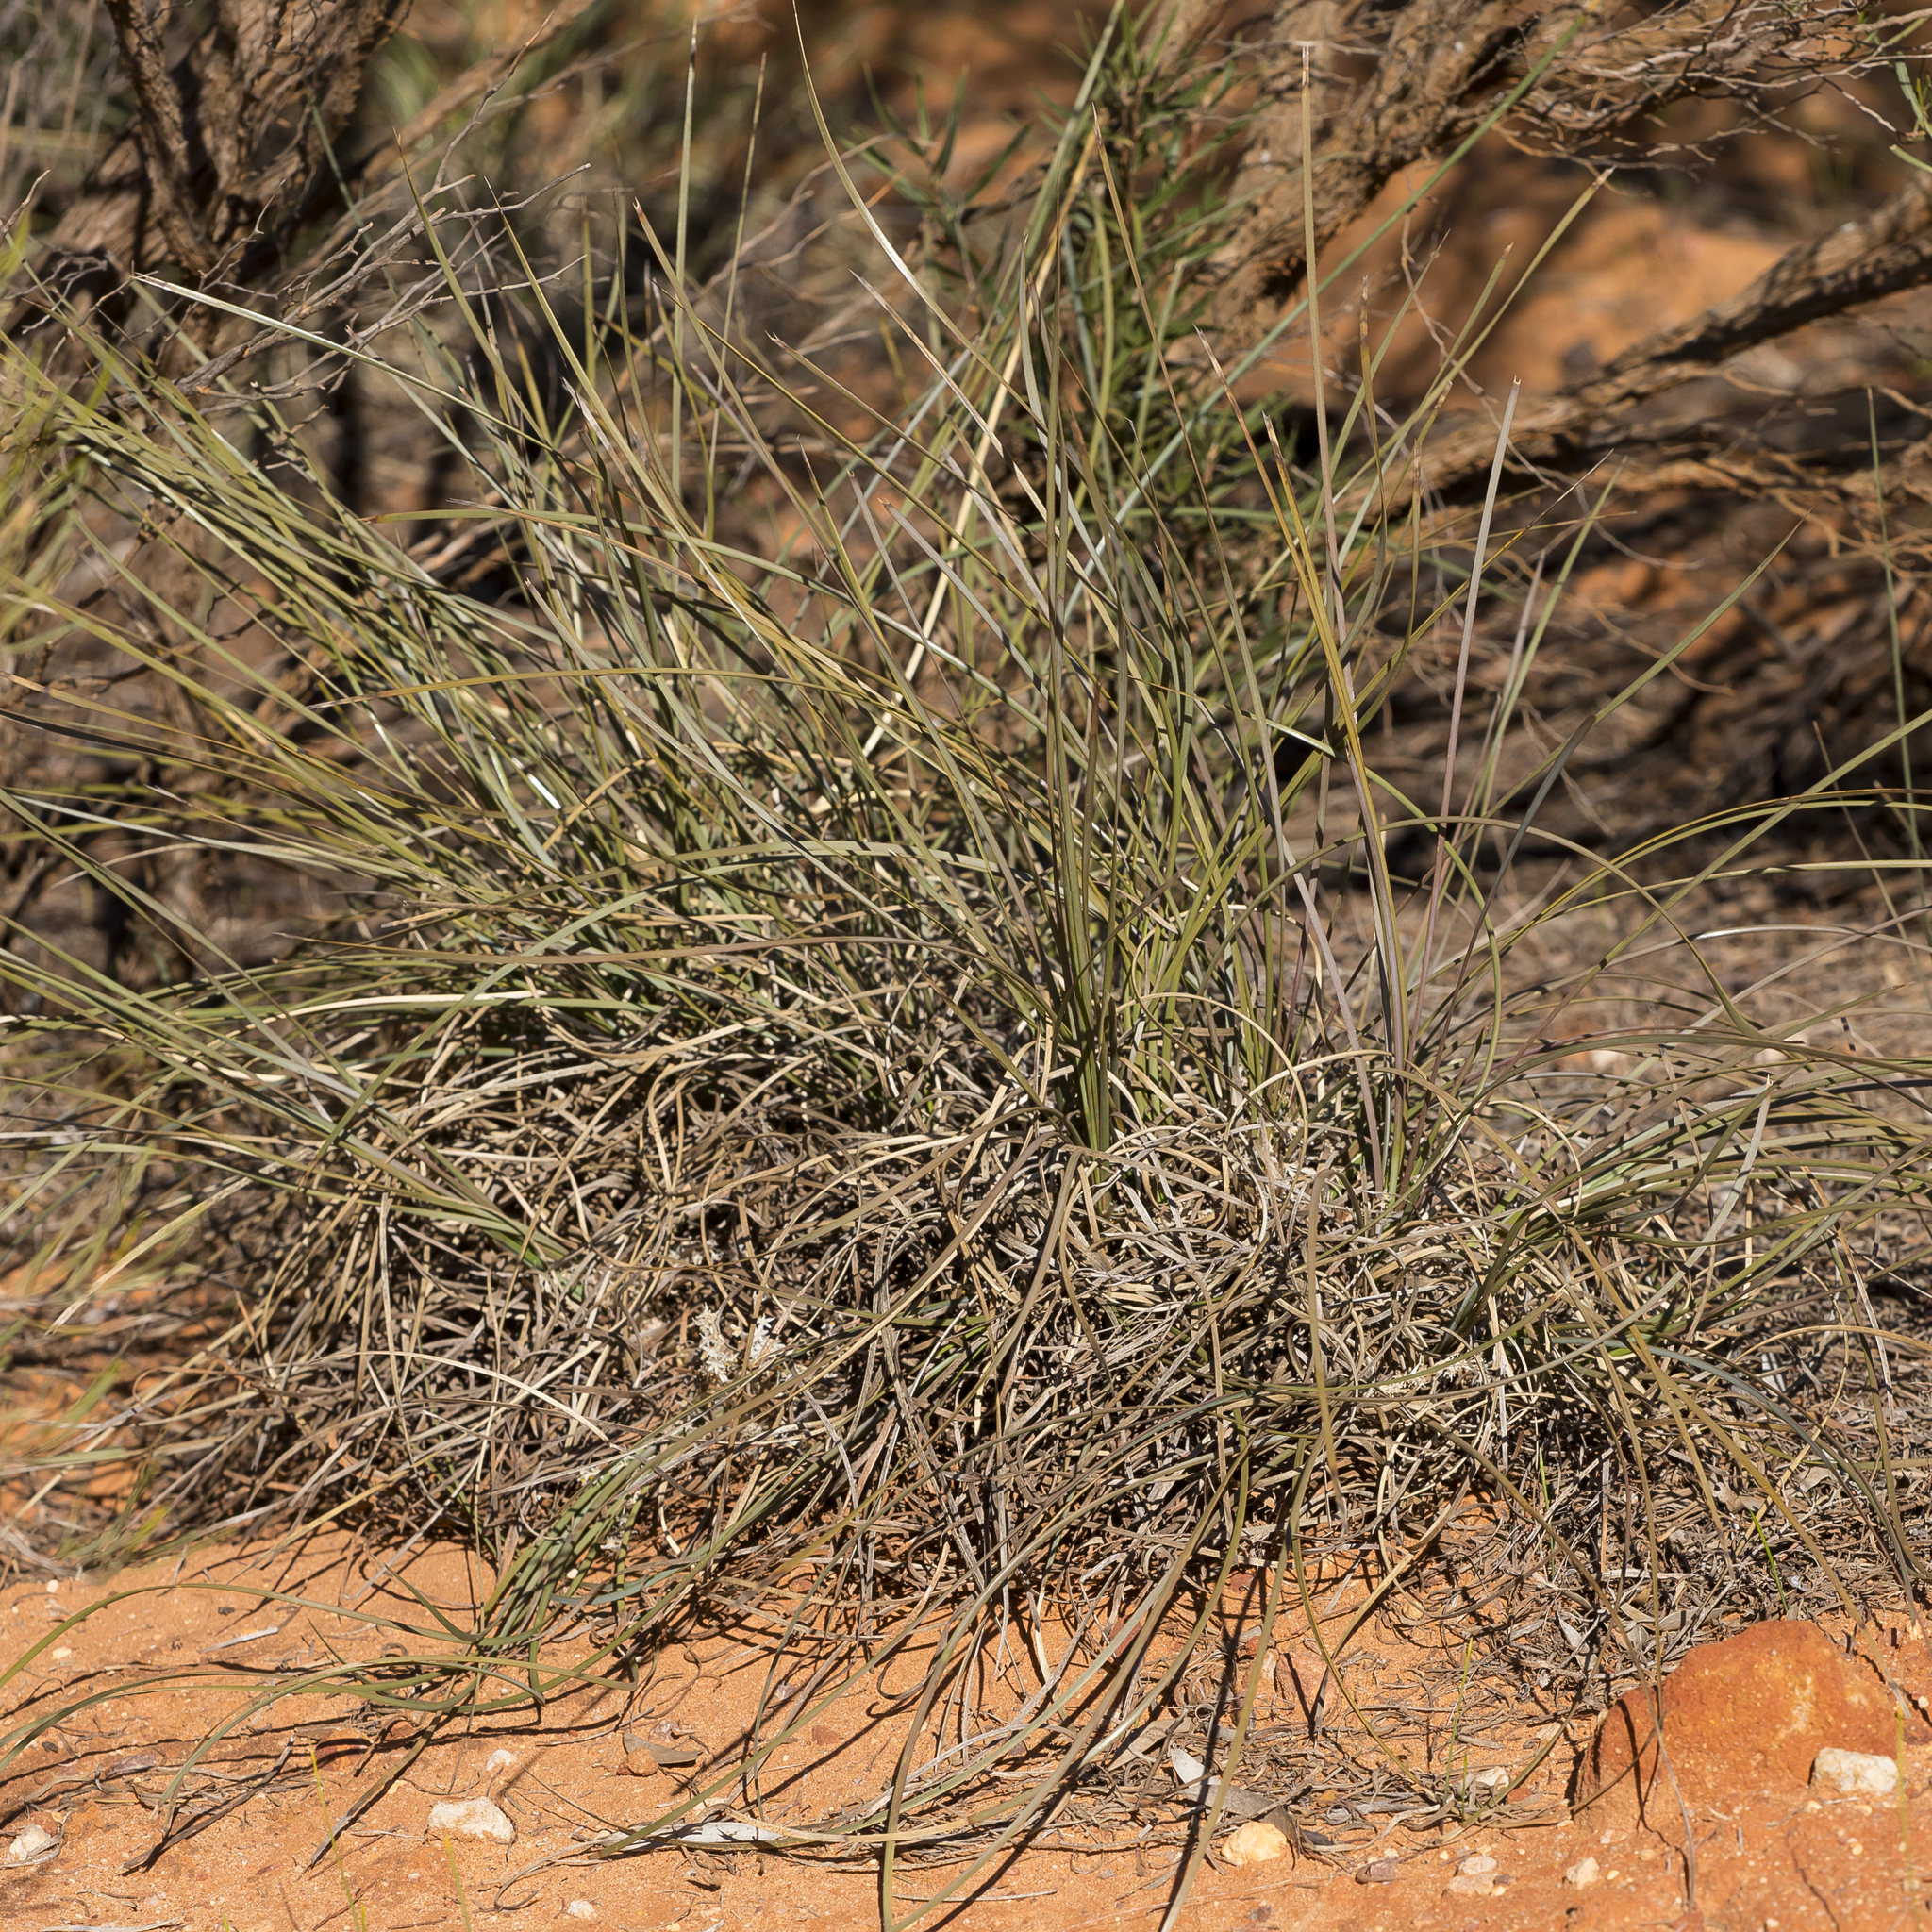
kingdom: Plantae
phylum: Tracheophyta
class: Liliopsida
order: Asparagales
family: Asparagaceae
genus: Lomandra
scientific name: Lomandra effusa
